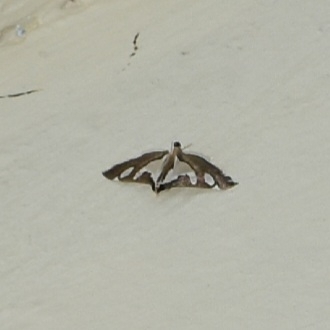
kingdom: Animalia
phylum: Arthropoda
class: Insecta
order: Lepidoptera
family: Crambidae
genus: Glyphodes
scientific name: Glyphodes bicolor
